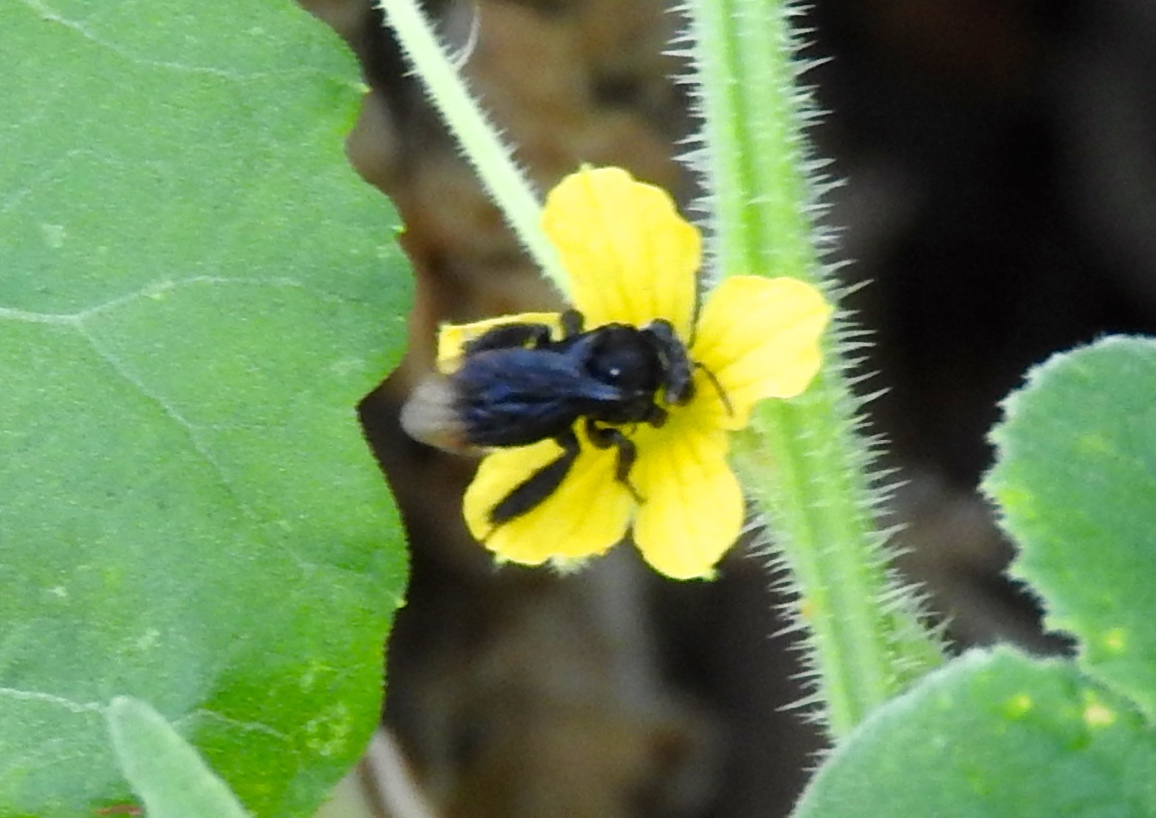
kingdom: Animalia
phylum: Arthropoda
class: Insecta
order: Hymenoptera
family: Apidae
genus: Paratetrapedia
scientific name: Paratetrapedia
